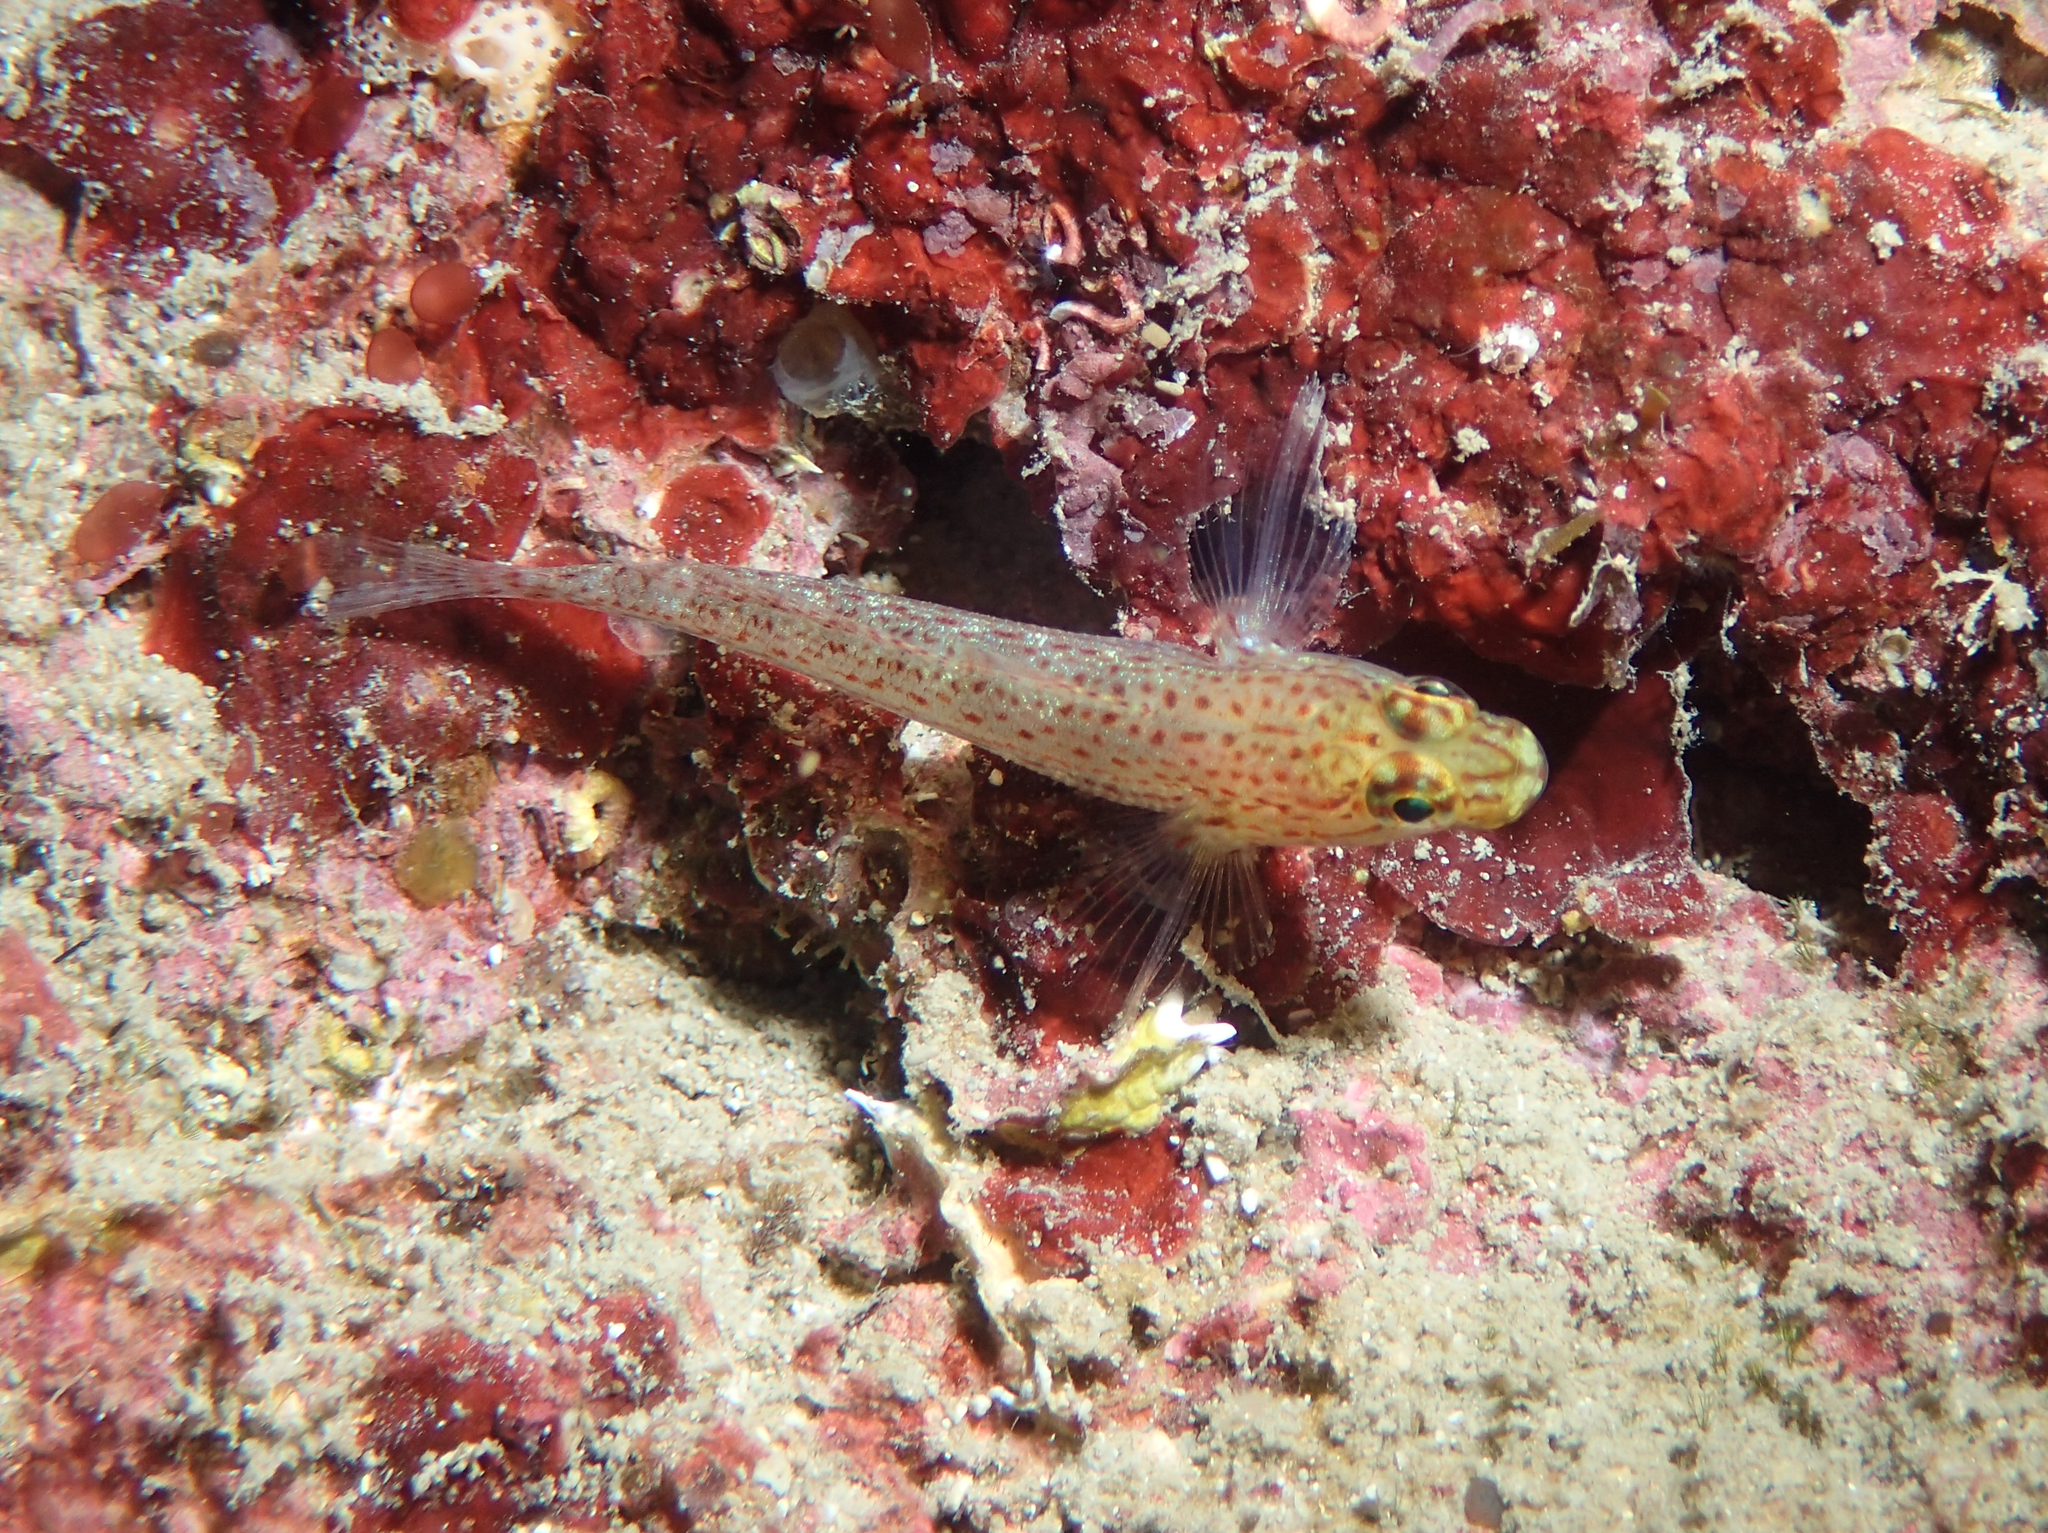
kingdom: Animalia
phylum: Chordata
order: Perciformes
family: Gobiidae
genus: Gobius
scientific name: Gobius xanthocephalus
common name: Golden goby
